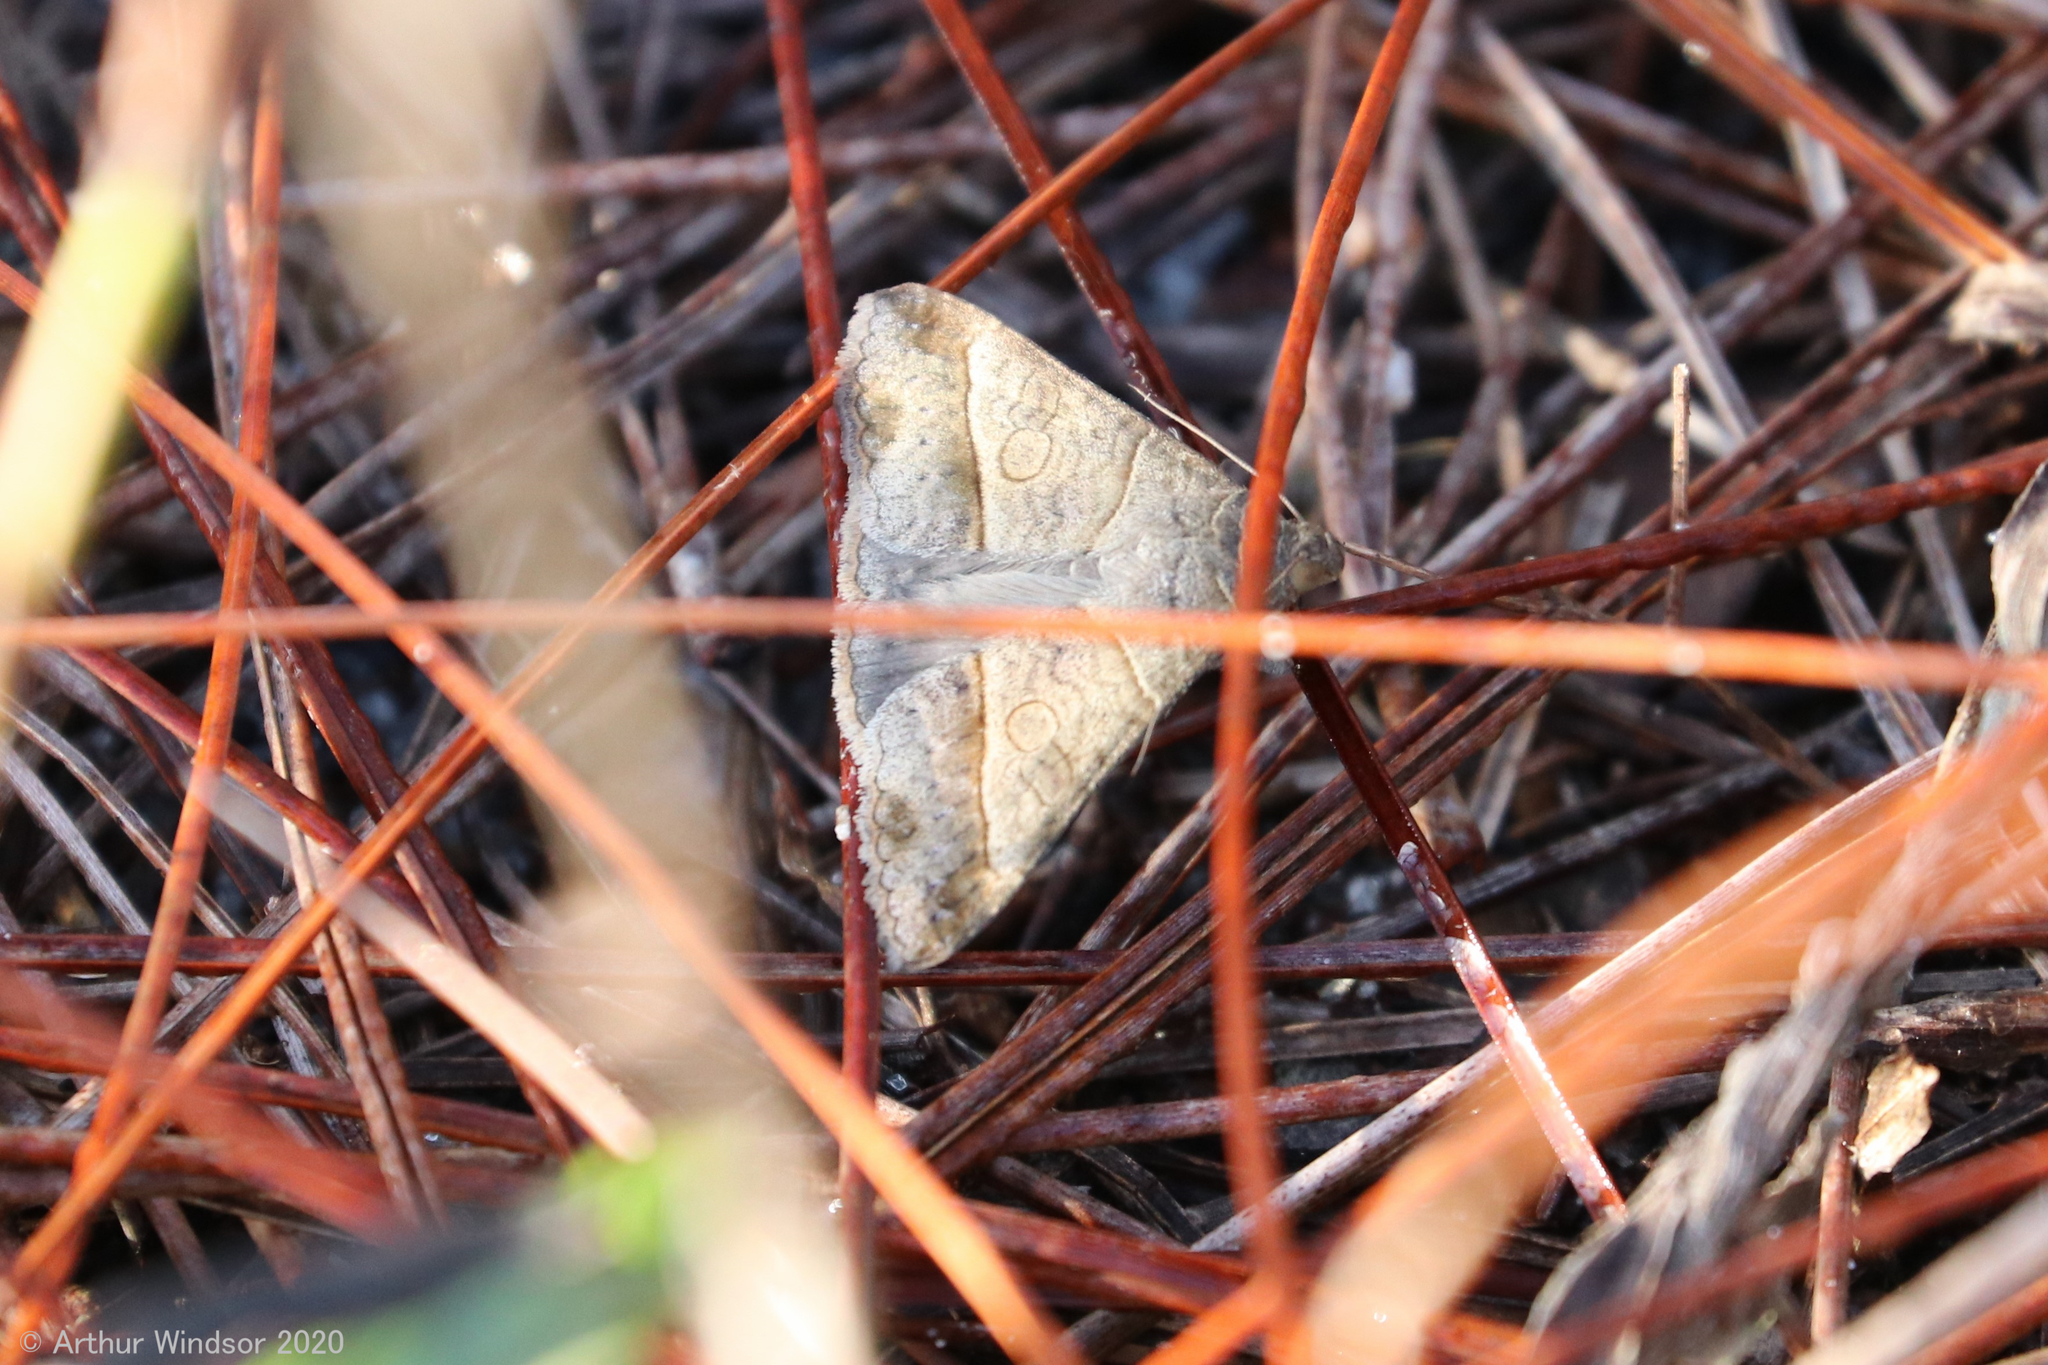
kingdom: Animalia
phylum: Arthropoda
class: Insecta
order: Lepidoptera
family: Erebidae
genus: Mocis
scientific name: Mocis latipes
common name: Striped grass looper
